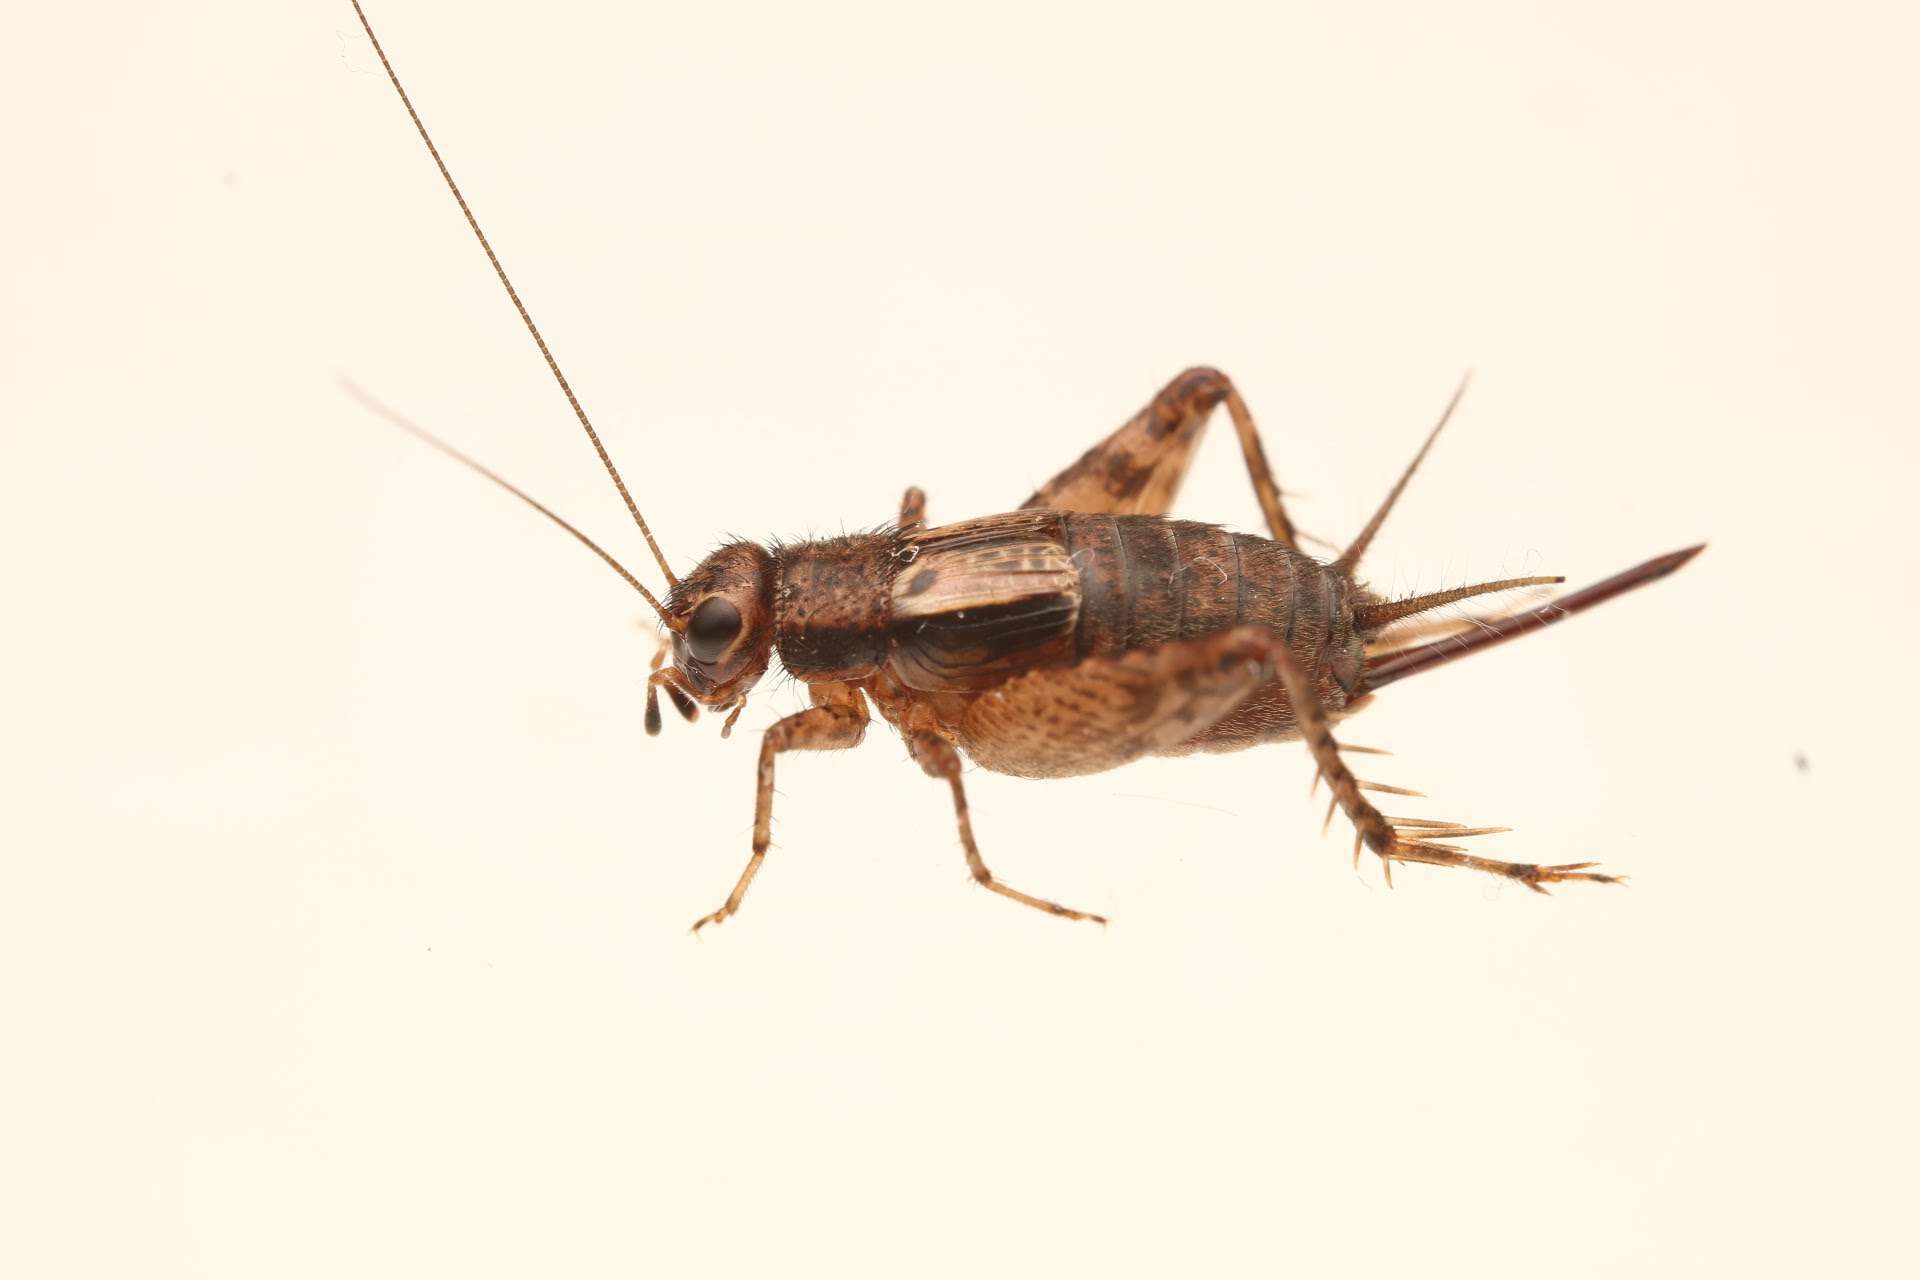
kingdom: Animalia
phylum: Arthropoda
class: Insecta
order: Orthoptera
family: Trigonidiidae
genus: Allonemobius
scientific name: Allonemobius maculatus
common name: Larger spotted ground cricket
